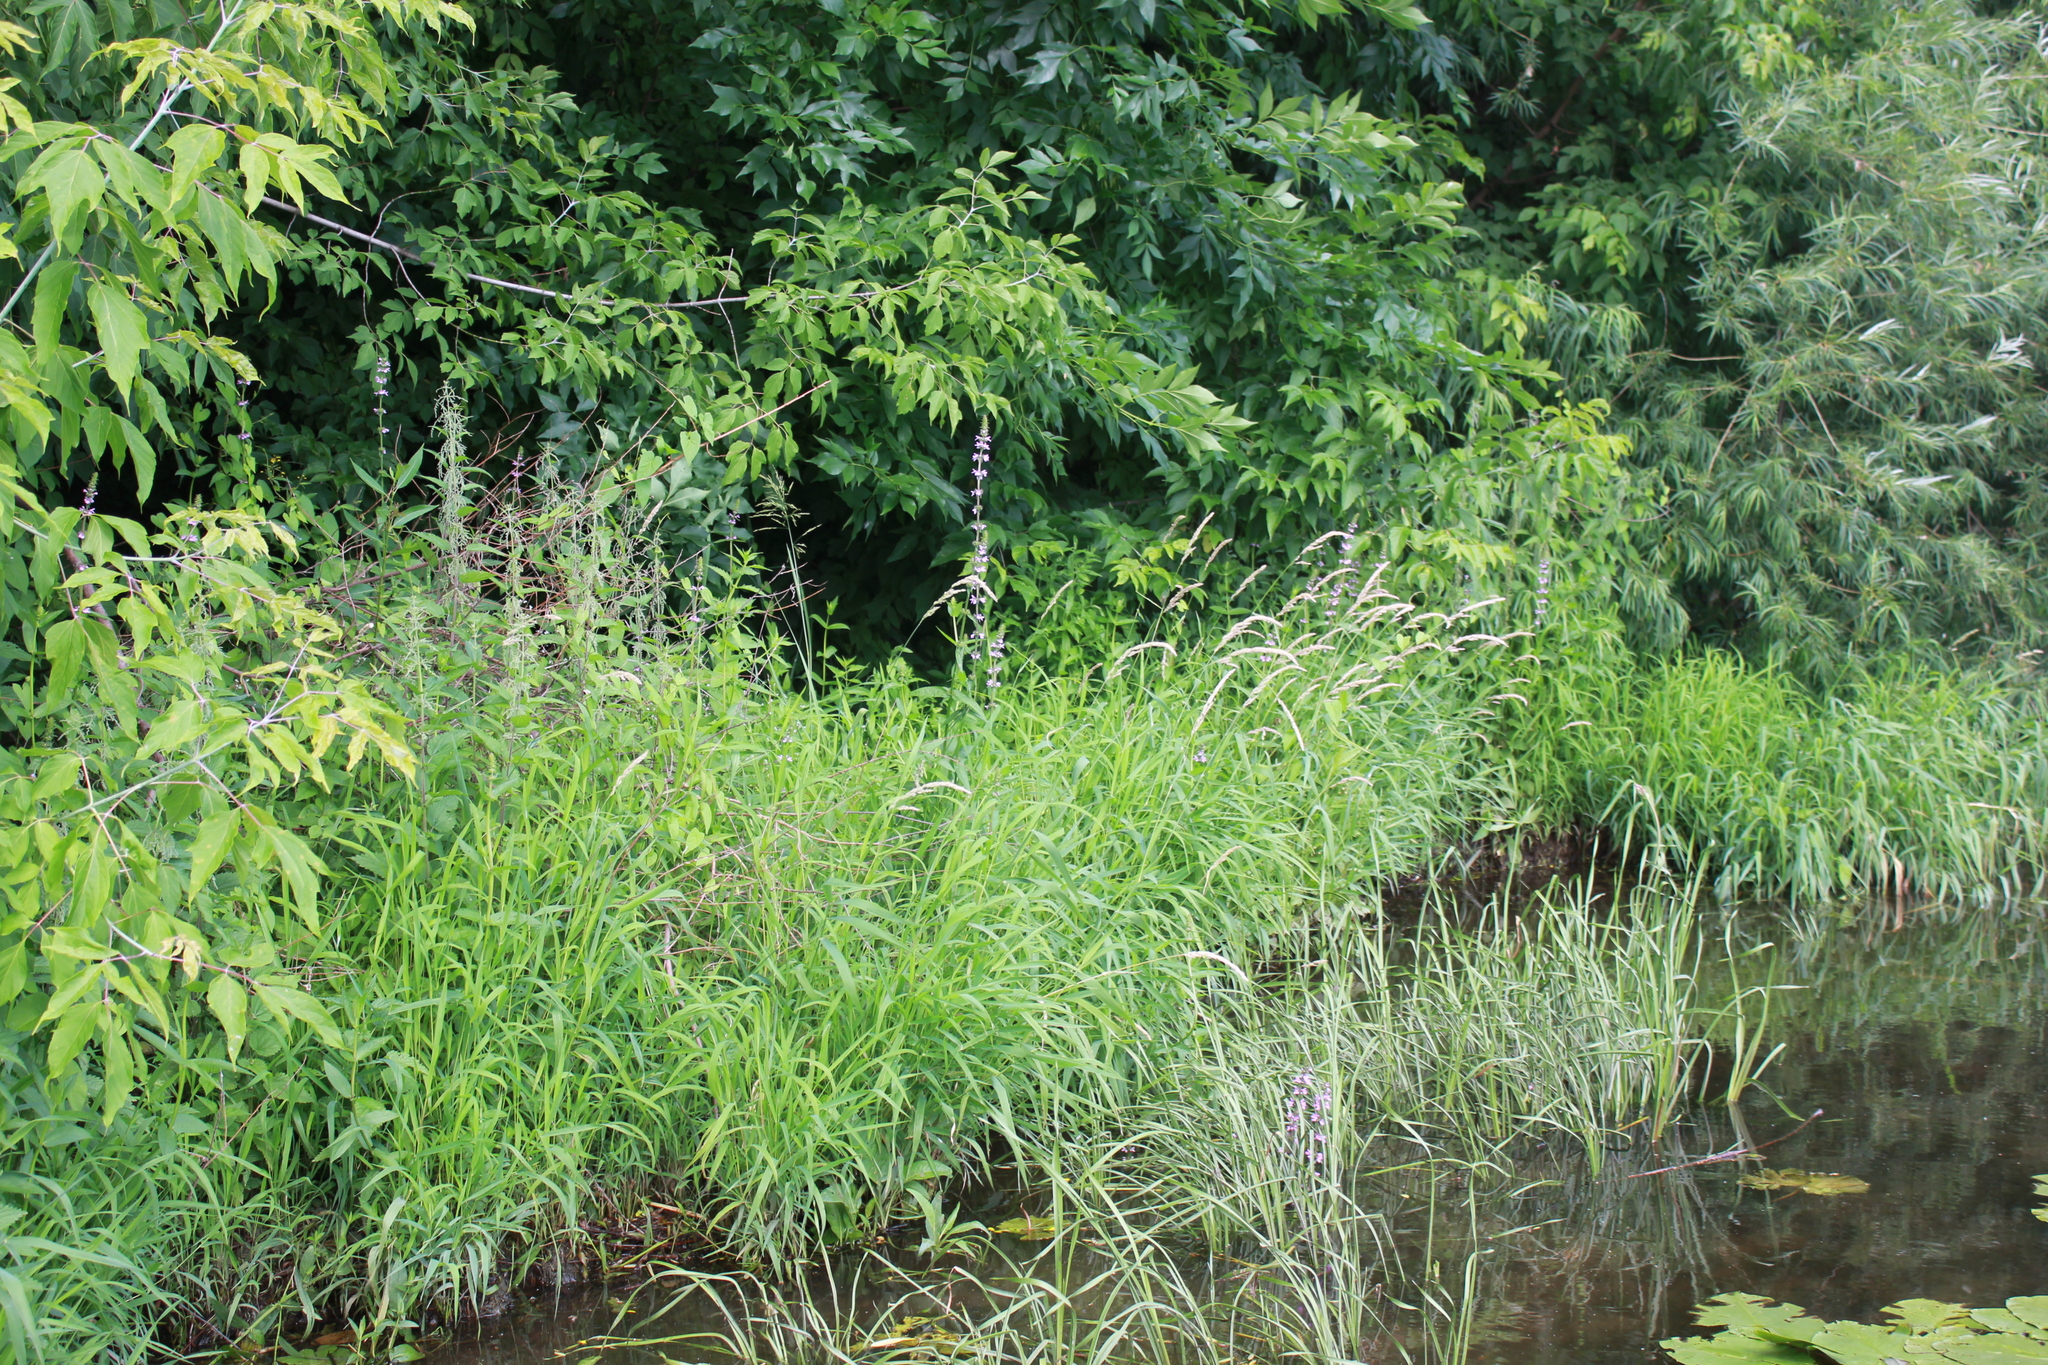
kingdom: Plantae
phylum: Tracheophyta
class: Magnoliopsida
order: Lamiales
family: Lamiaceae
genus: Stachys
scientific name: Stachys palustris
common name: Marsh woundwort
